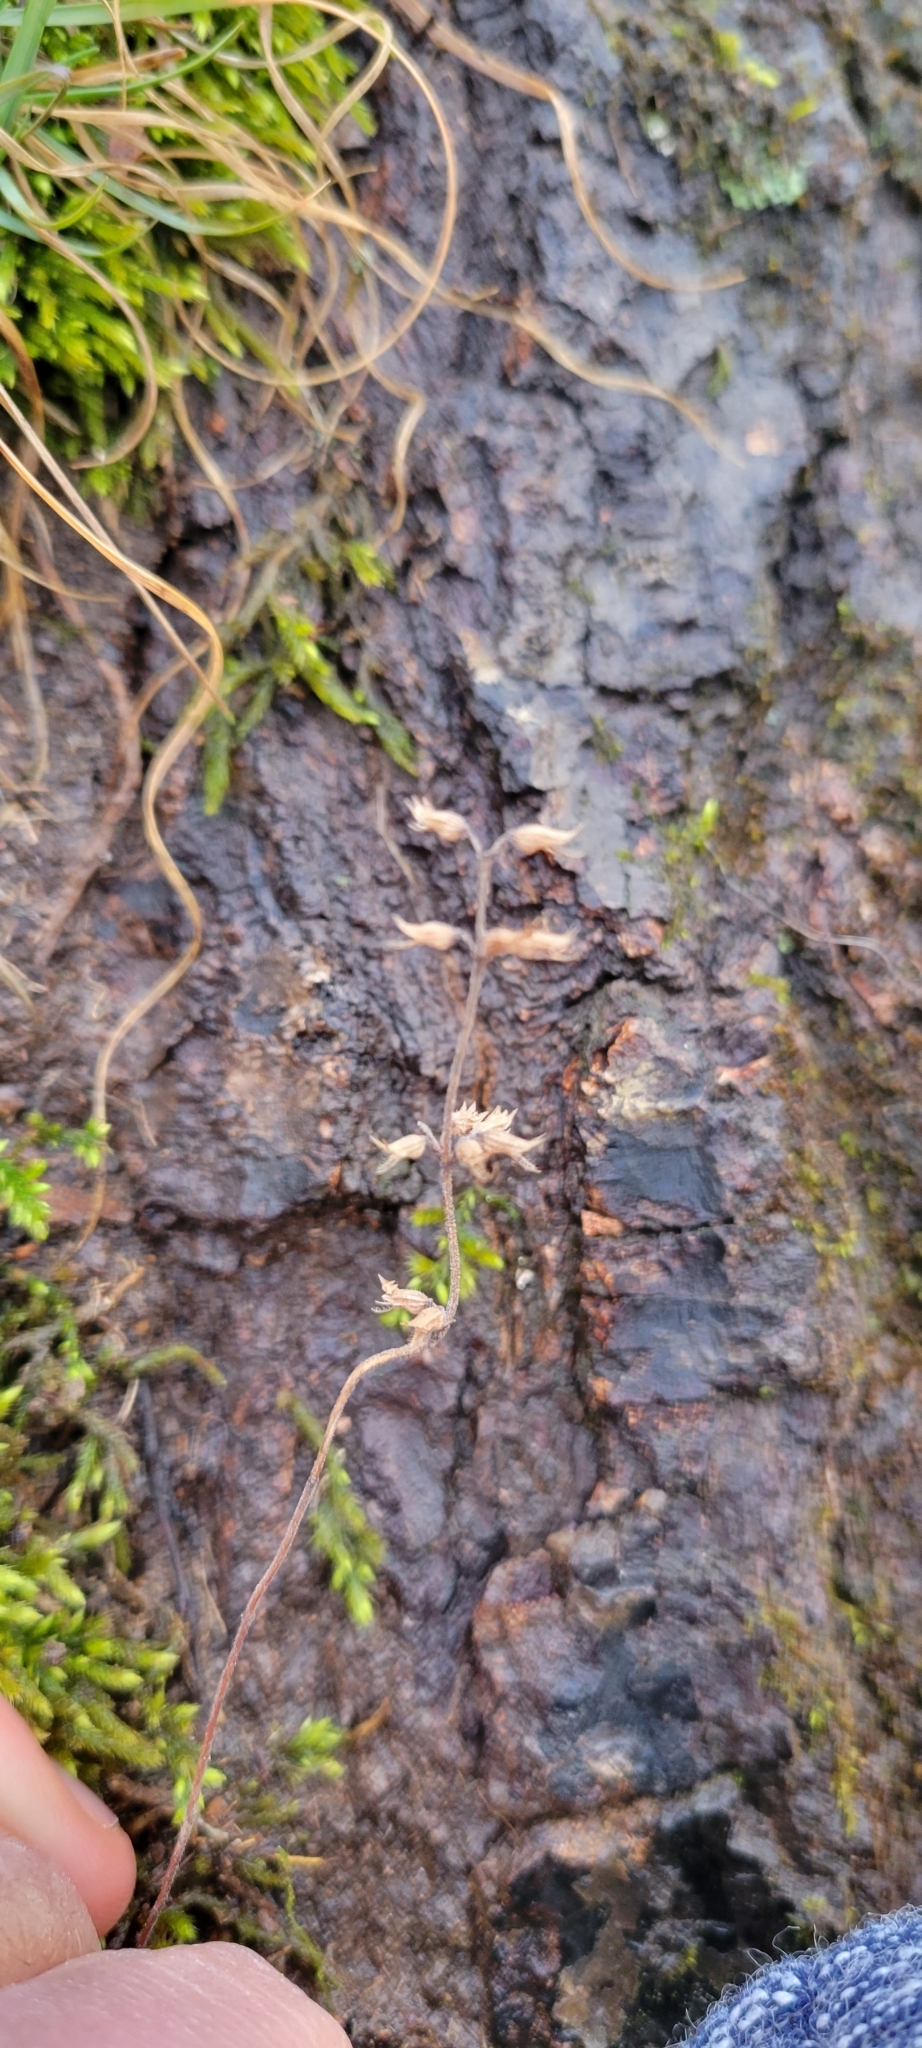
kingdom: Plantae
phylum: Tracheophyta
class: Magnoliopsida
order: Lamiales
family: Lamiaceae
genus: Hedeoma
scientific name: Hedeoma pulegioides
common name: American false pennyroyal
